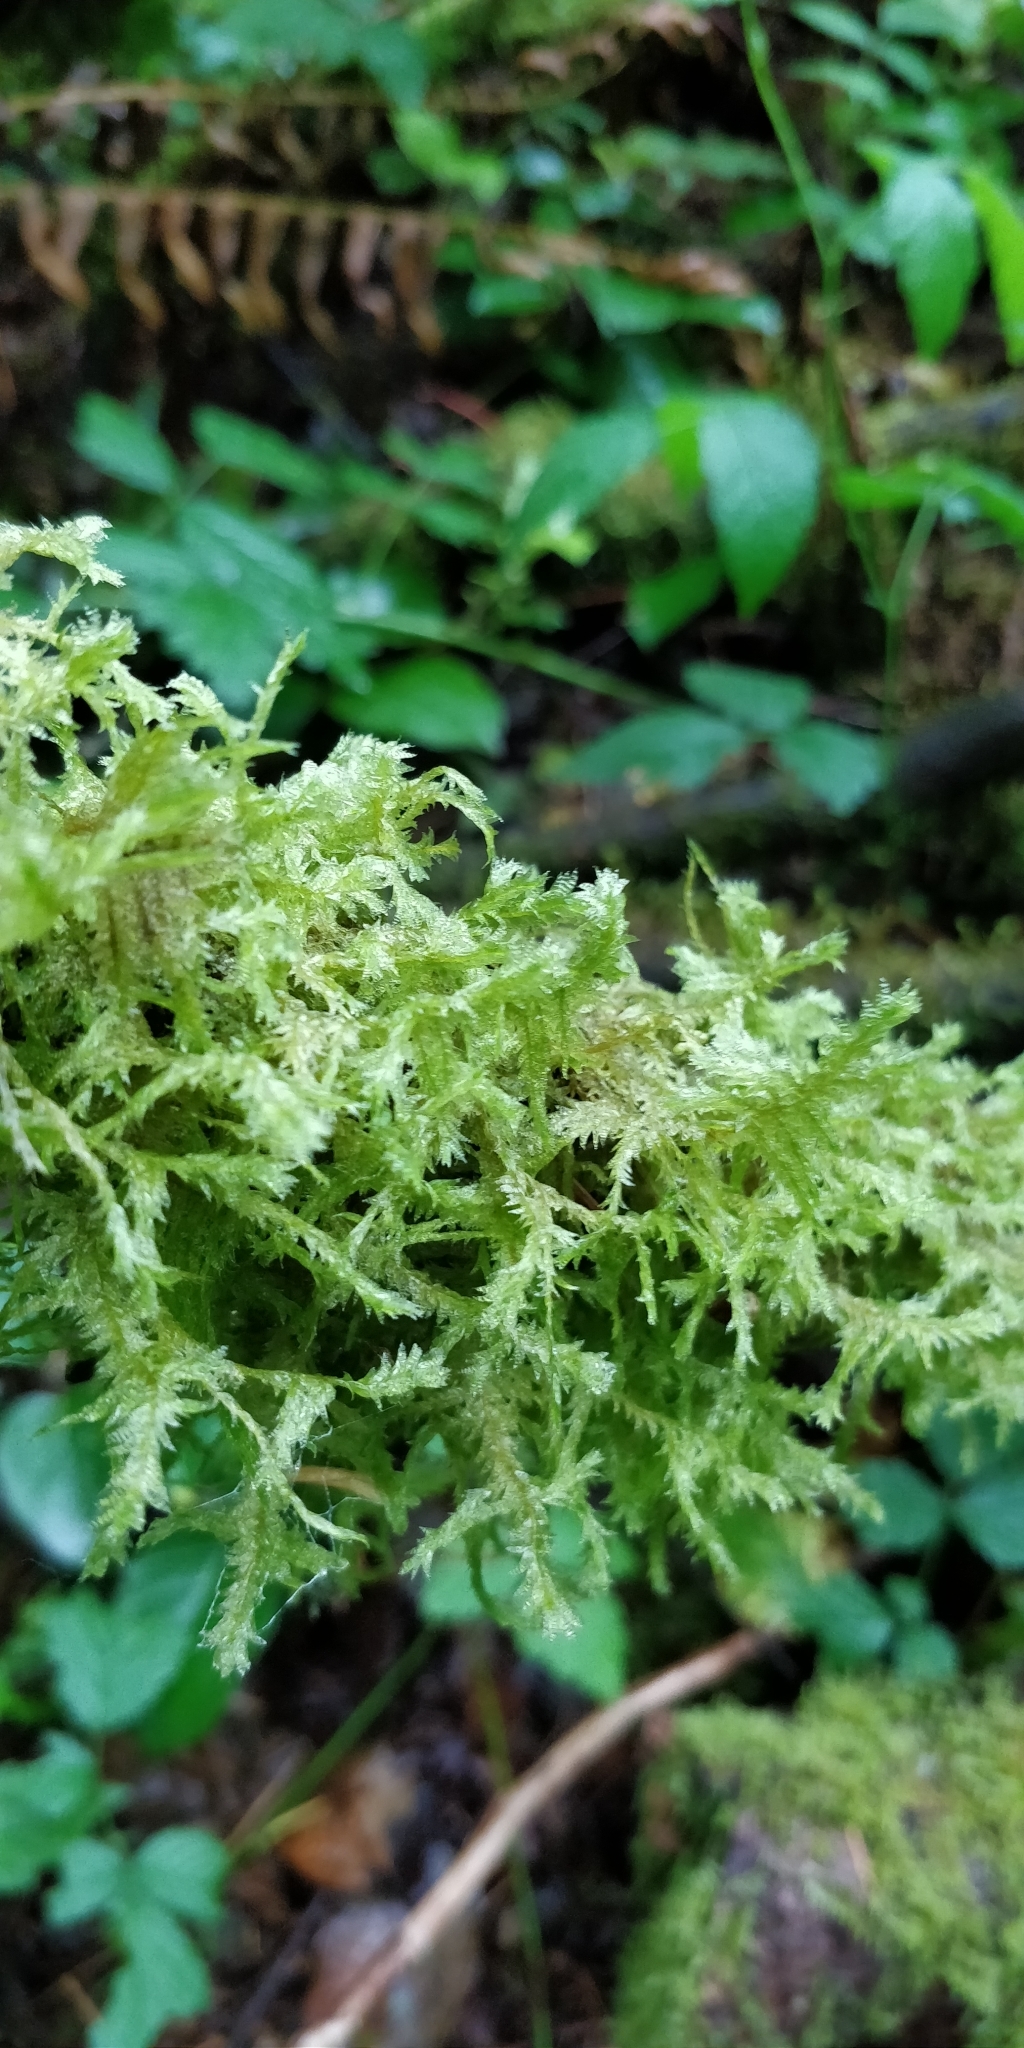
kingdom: Plantae
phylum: Bryophyta
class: Bryopsida
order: Hypnales
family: Neckeraceae
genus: Neckera
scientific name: Neckera douglasii
